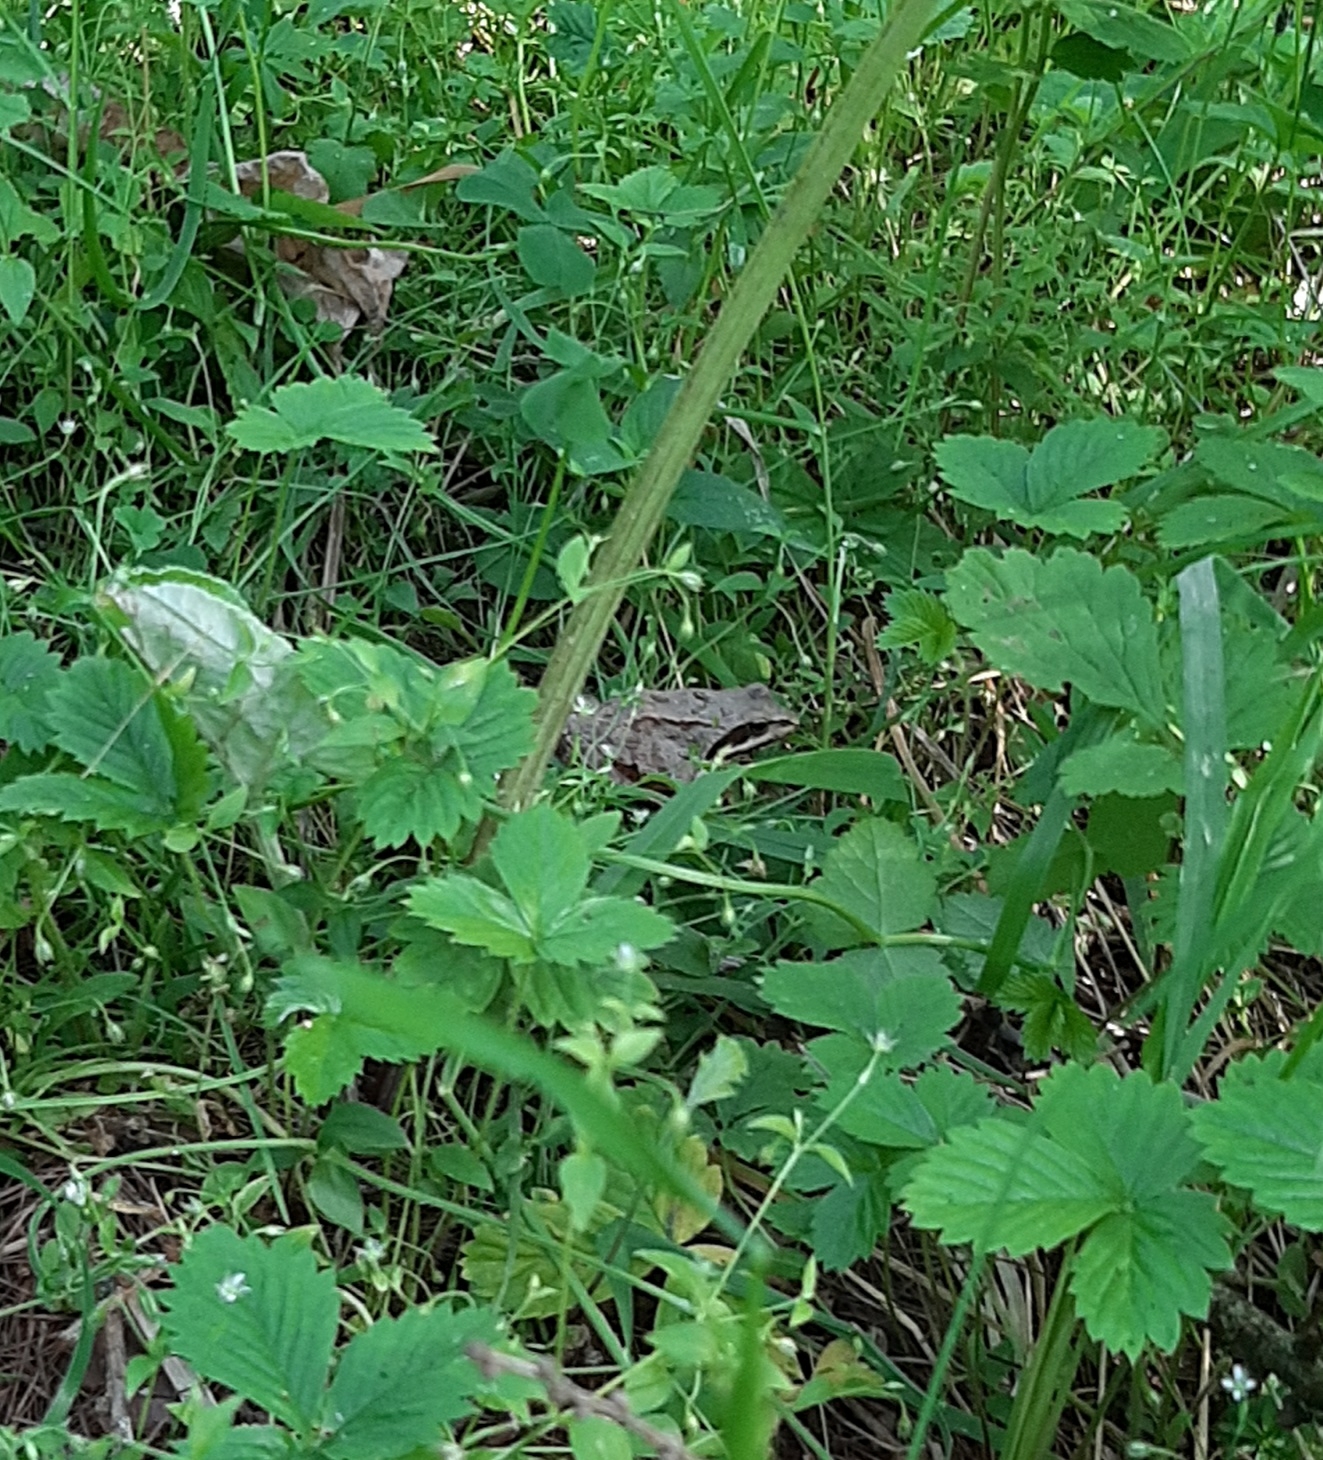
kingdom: Animalia
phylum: Chordata
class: Amphibia
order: Anura
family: Ranidae
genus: Rana
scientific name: Rana temporaria
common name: Common frog
